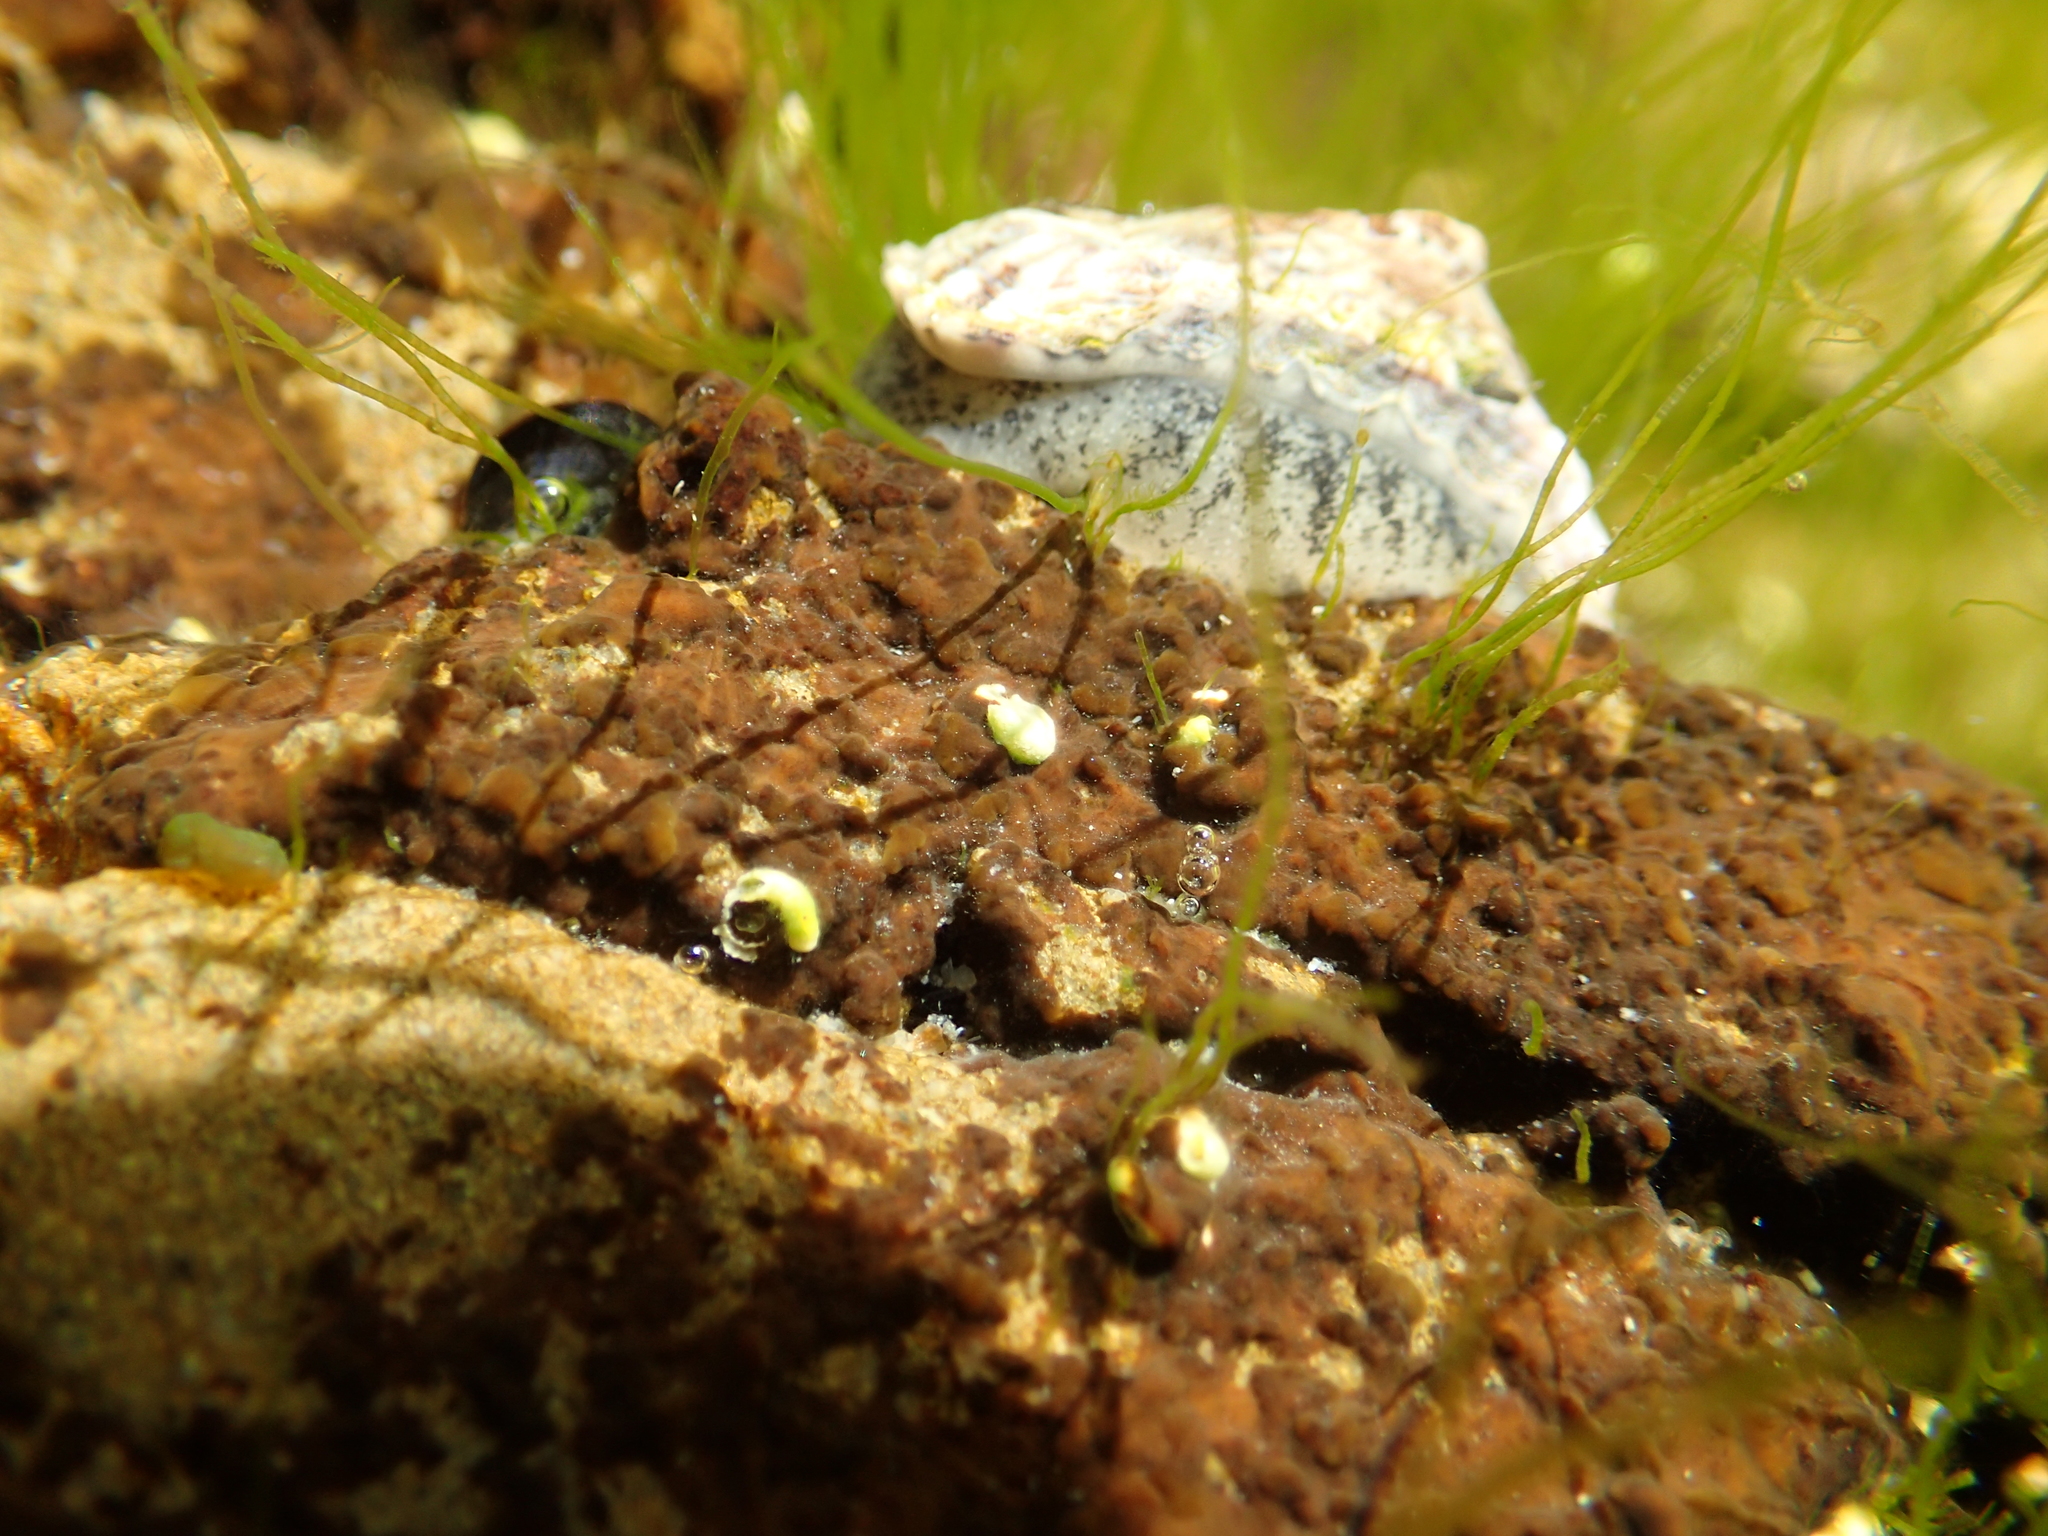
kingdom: Animalia
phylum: Mollusca
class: Gastropoda
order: Siphonariida
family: Siphonariidae
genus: Siphonaria
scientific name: Siphonaria australis
